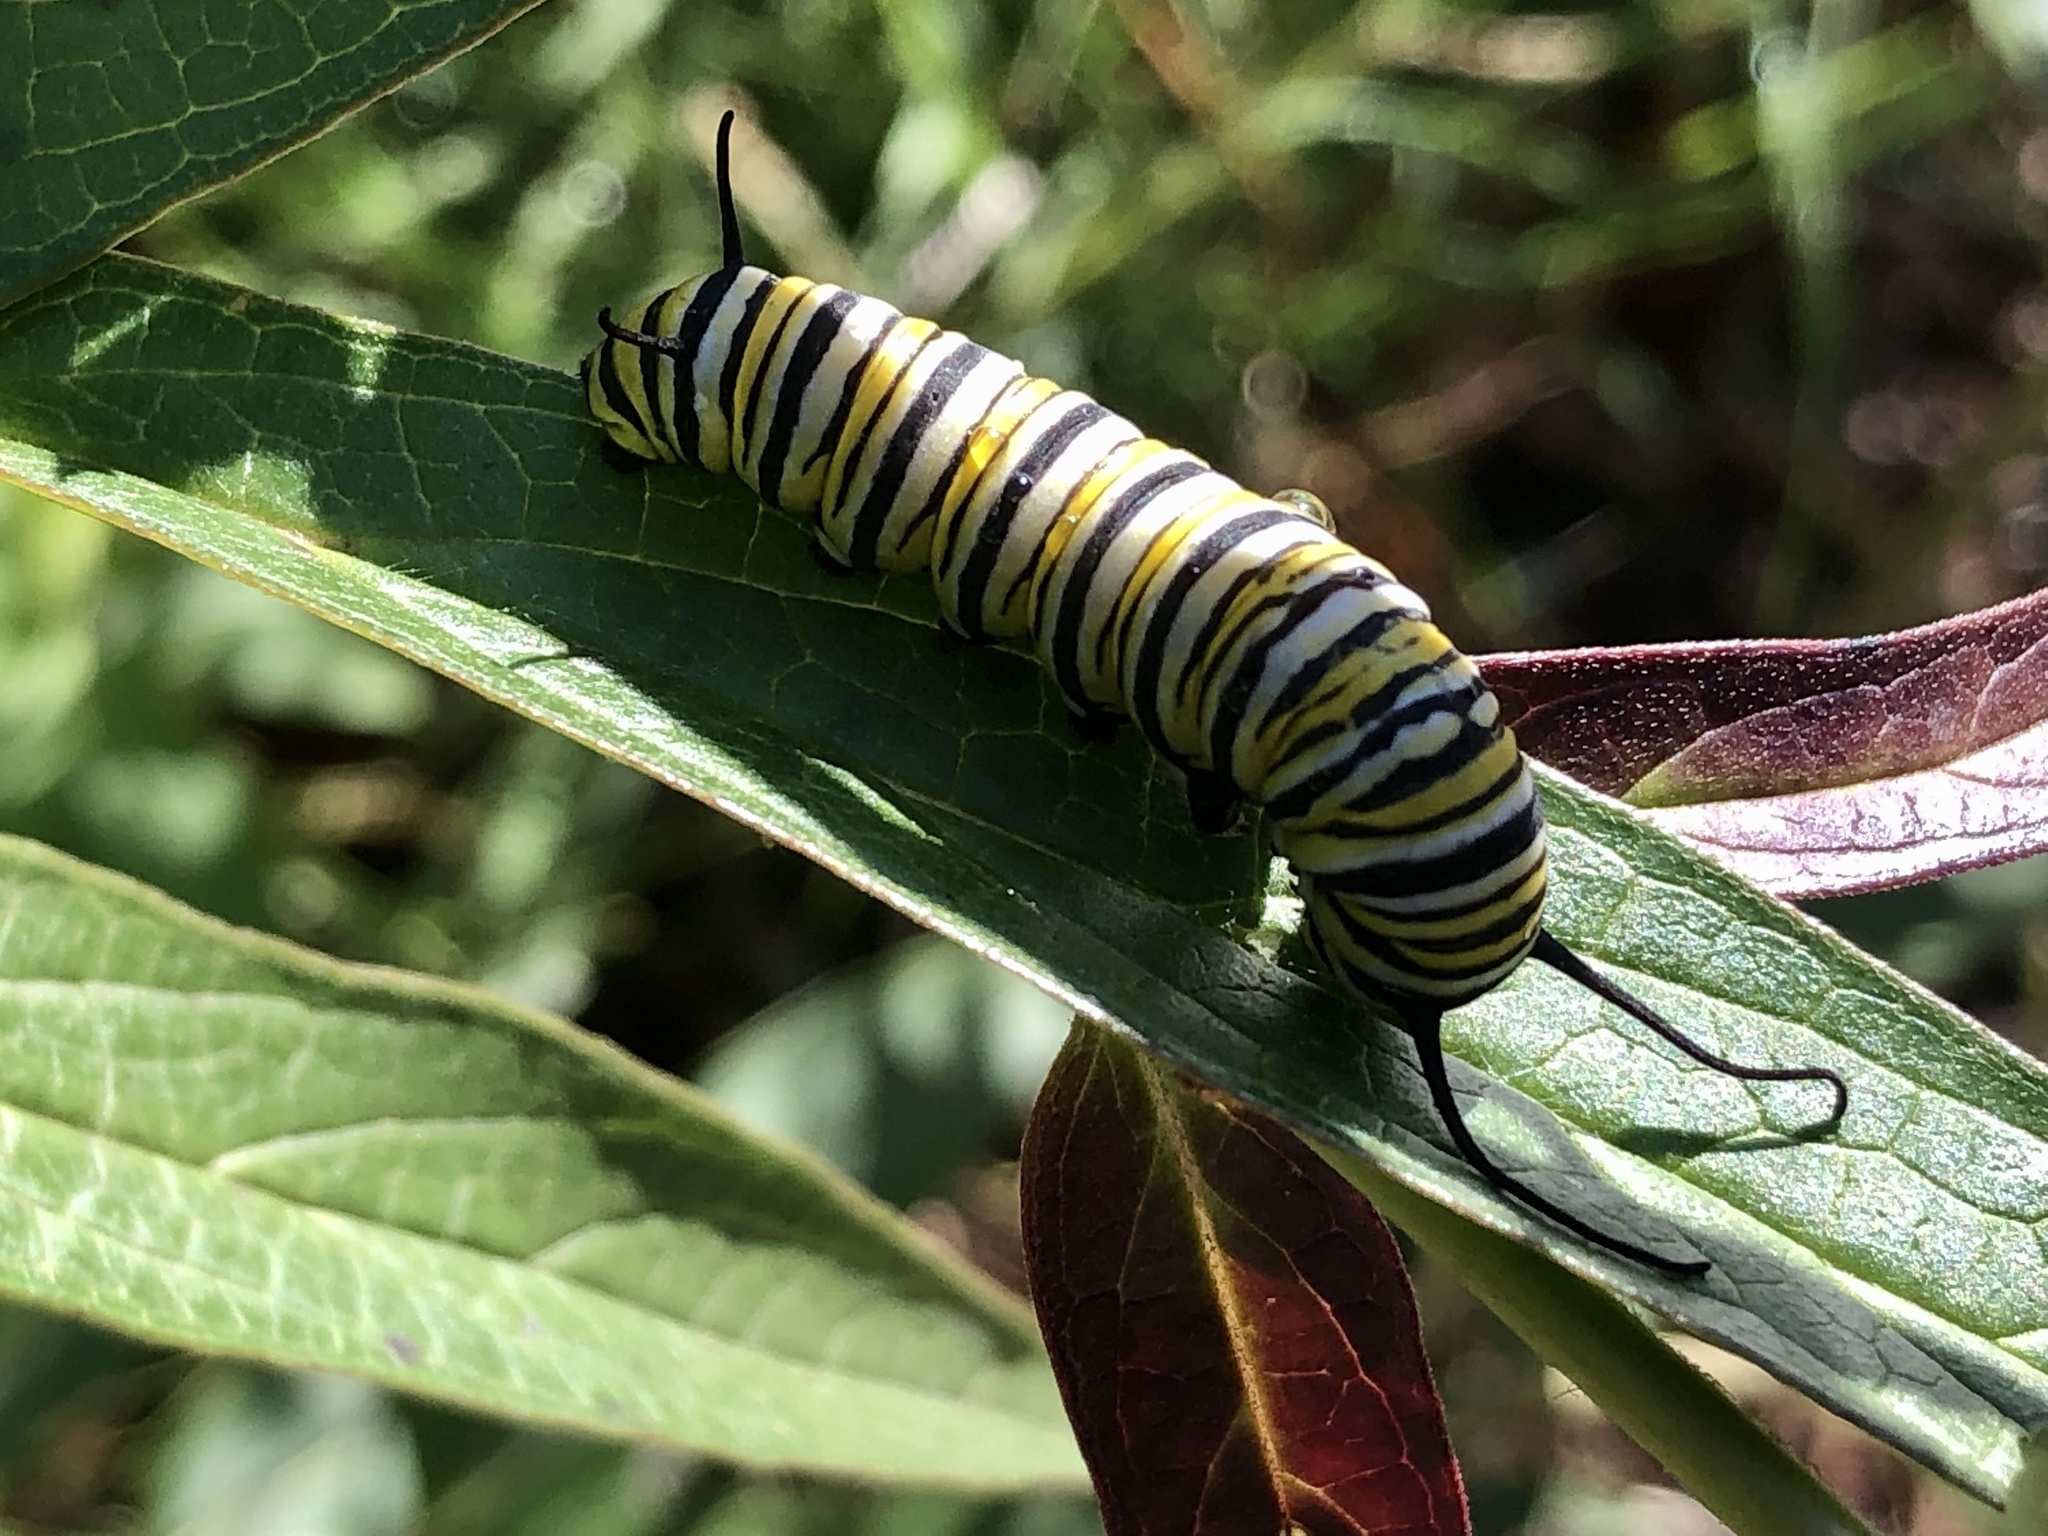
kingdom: Animalia
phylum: Arthropoda
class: Insecta
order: Lepidoptera
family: Nymphalidae
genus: Danaus
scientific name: Danaus plexippus
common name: Monarch
